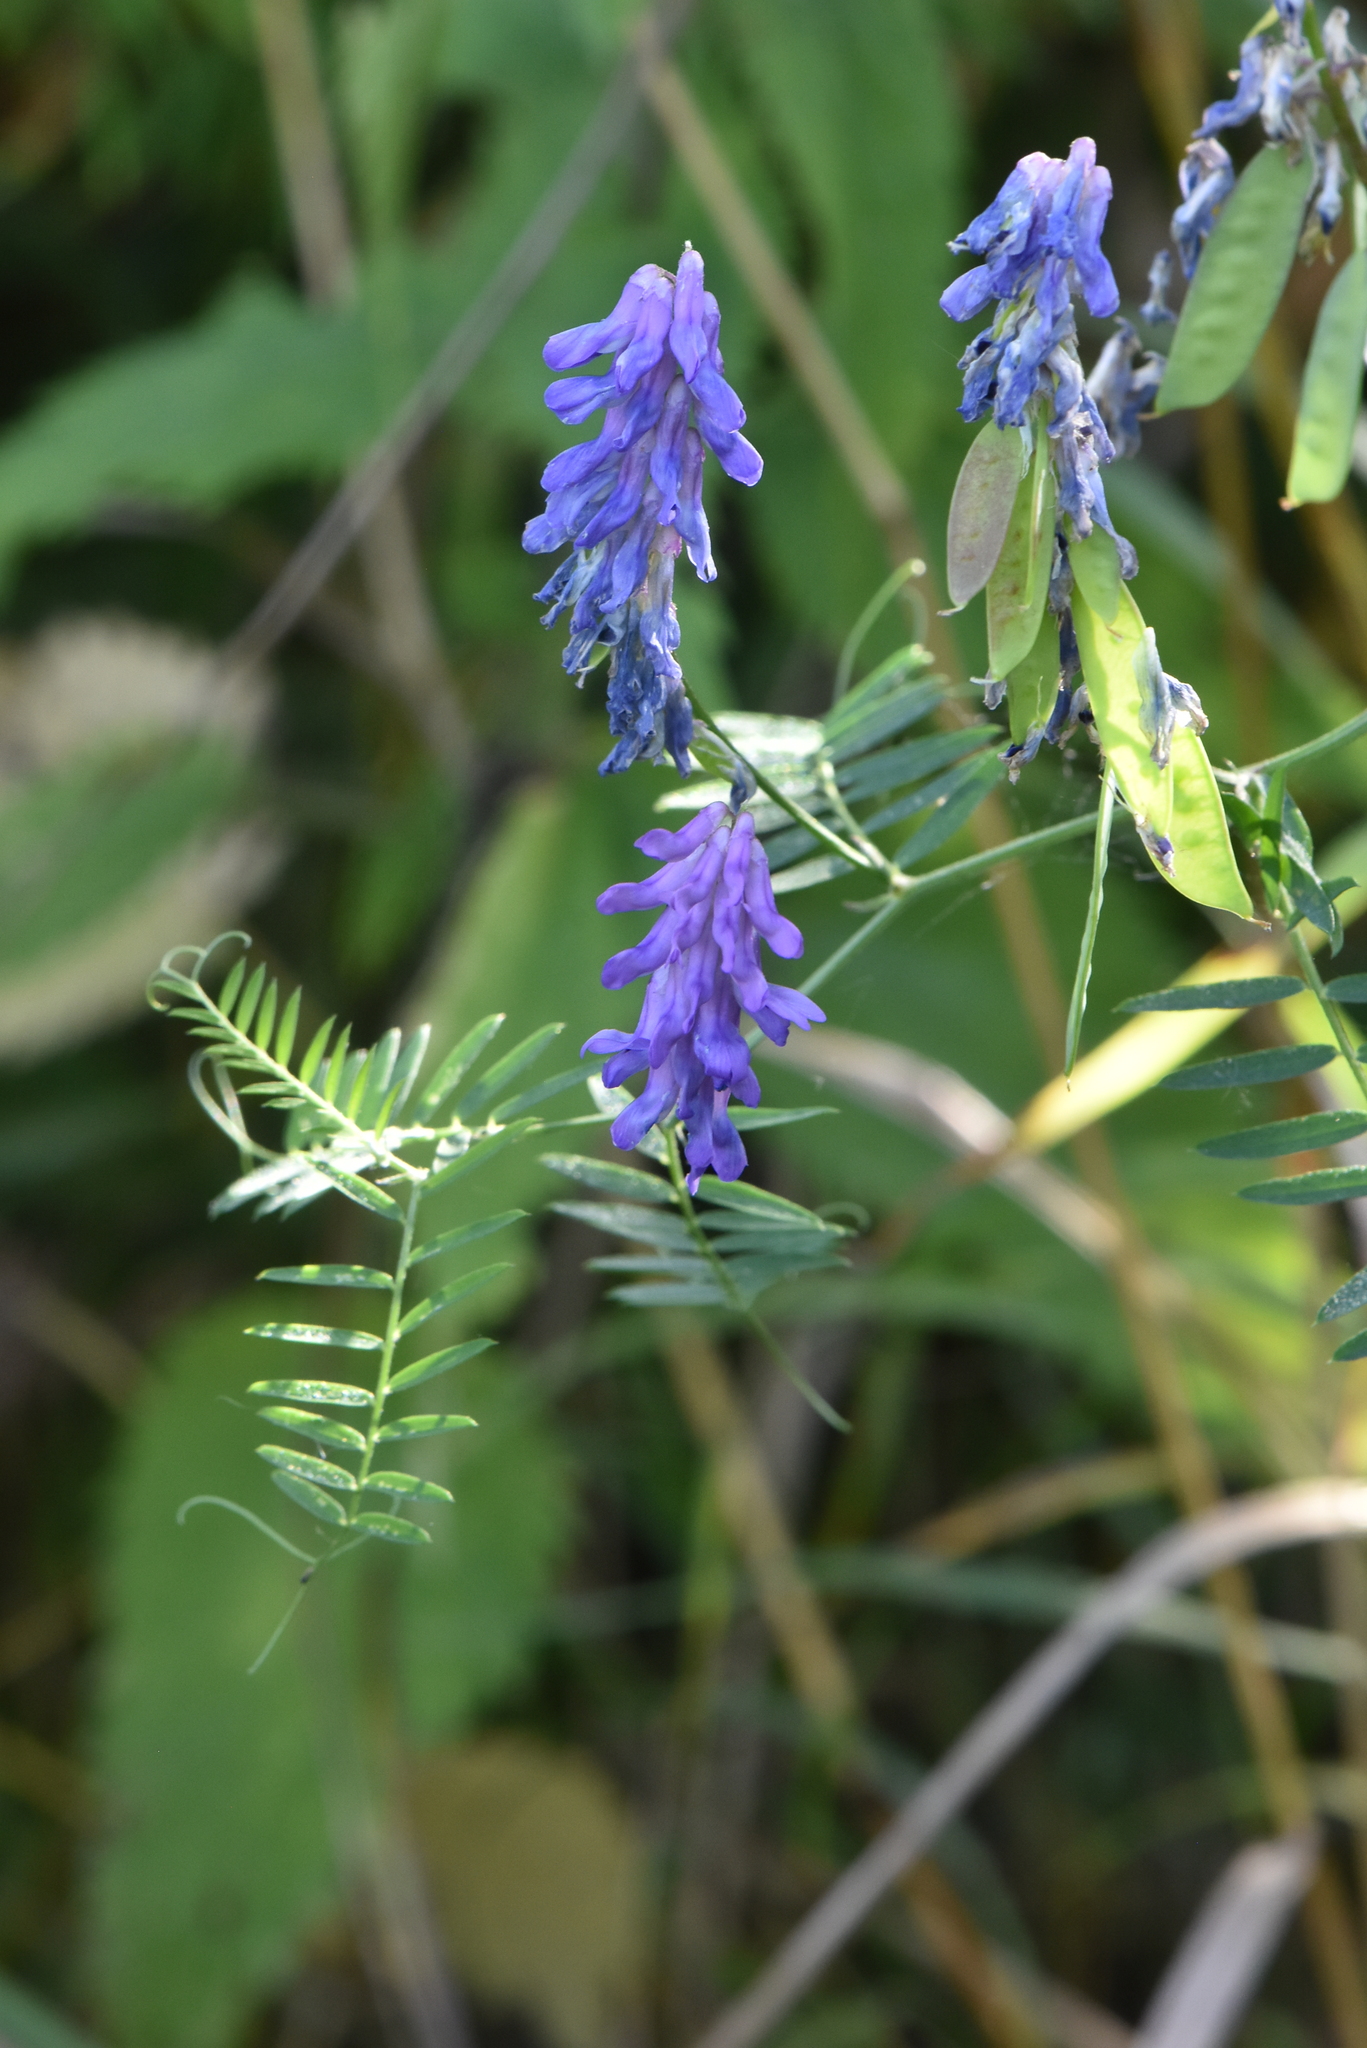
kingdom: Plantae
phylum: Tracheophyta
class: Magnoliopsida
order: Fabales
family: Fabaceae
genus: Vicia
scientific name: Vicia cracca
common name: Bird vetch
